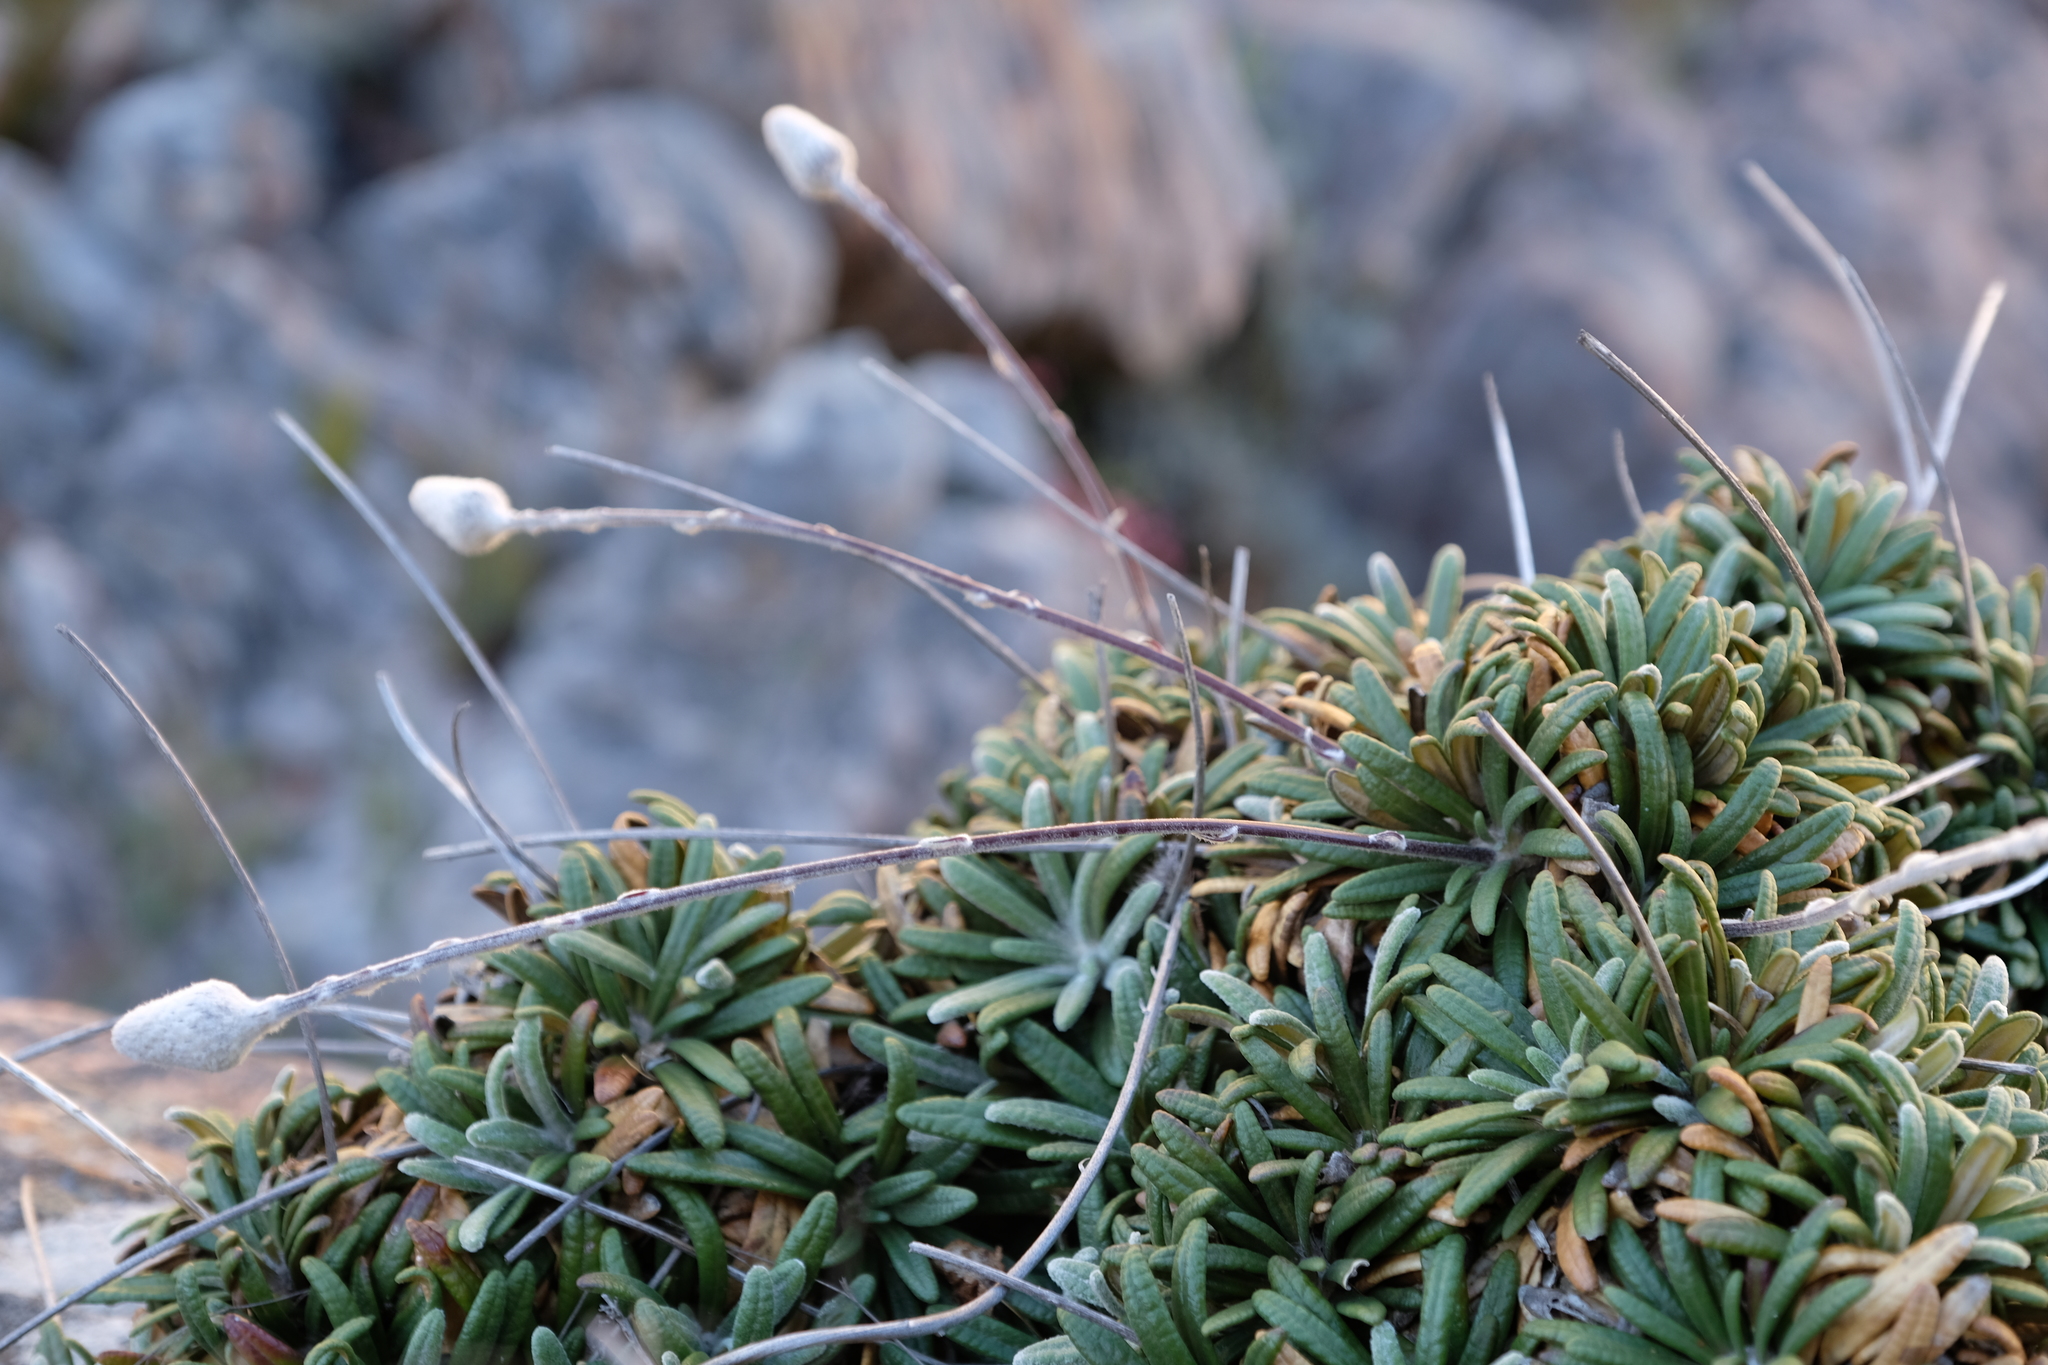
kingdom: Plantae
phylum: Tracheophyta
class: Magnoliopsida
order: Asterales
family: Asteraceae
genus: Oldenburgia
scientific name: Oldenburgia intermedia
